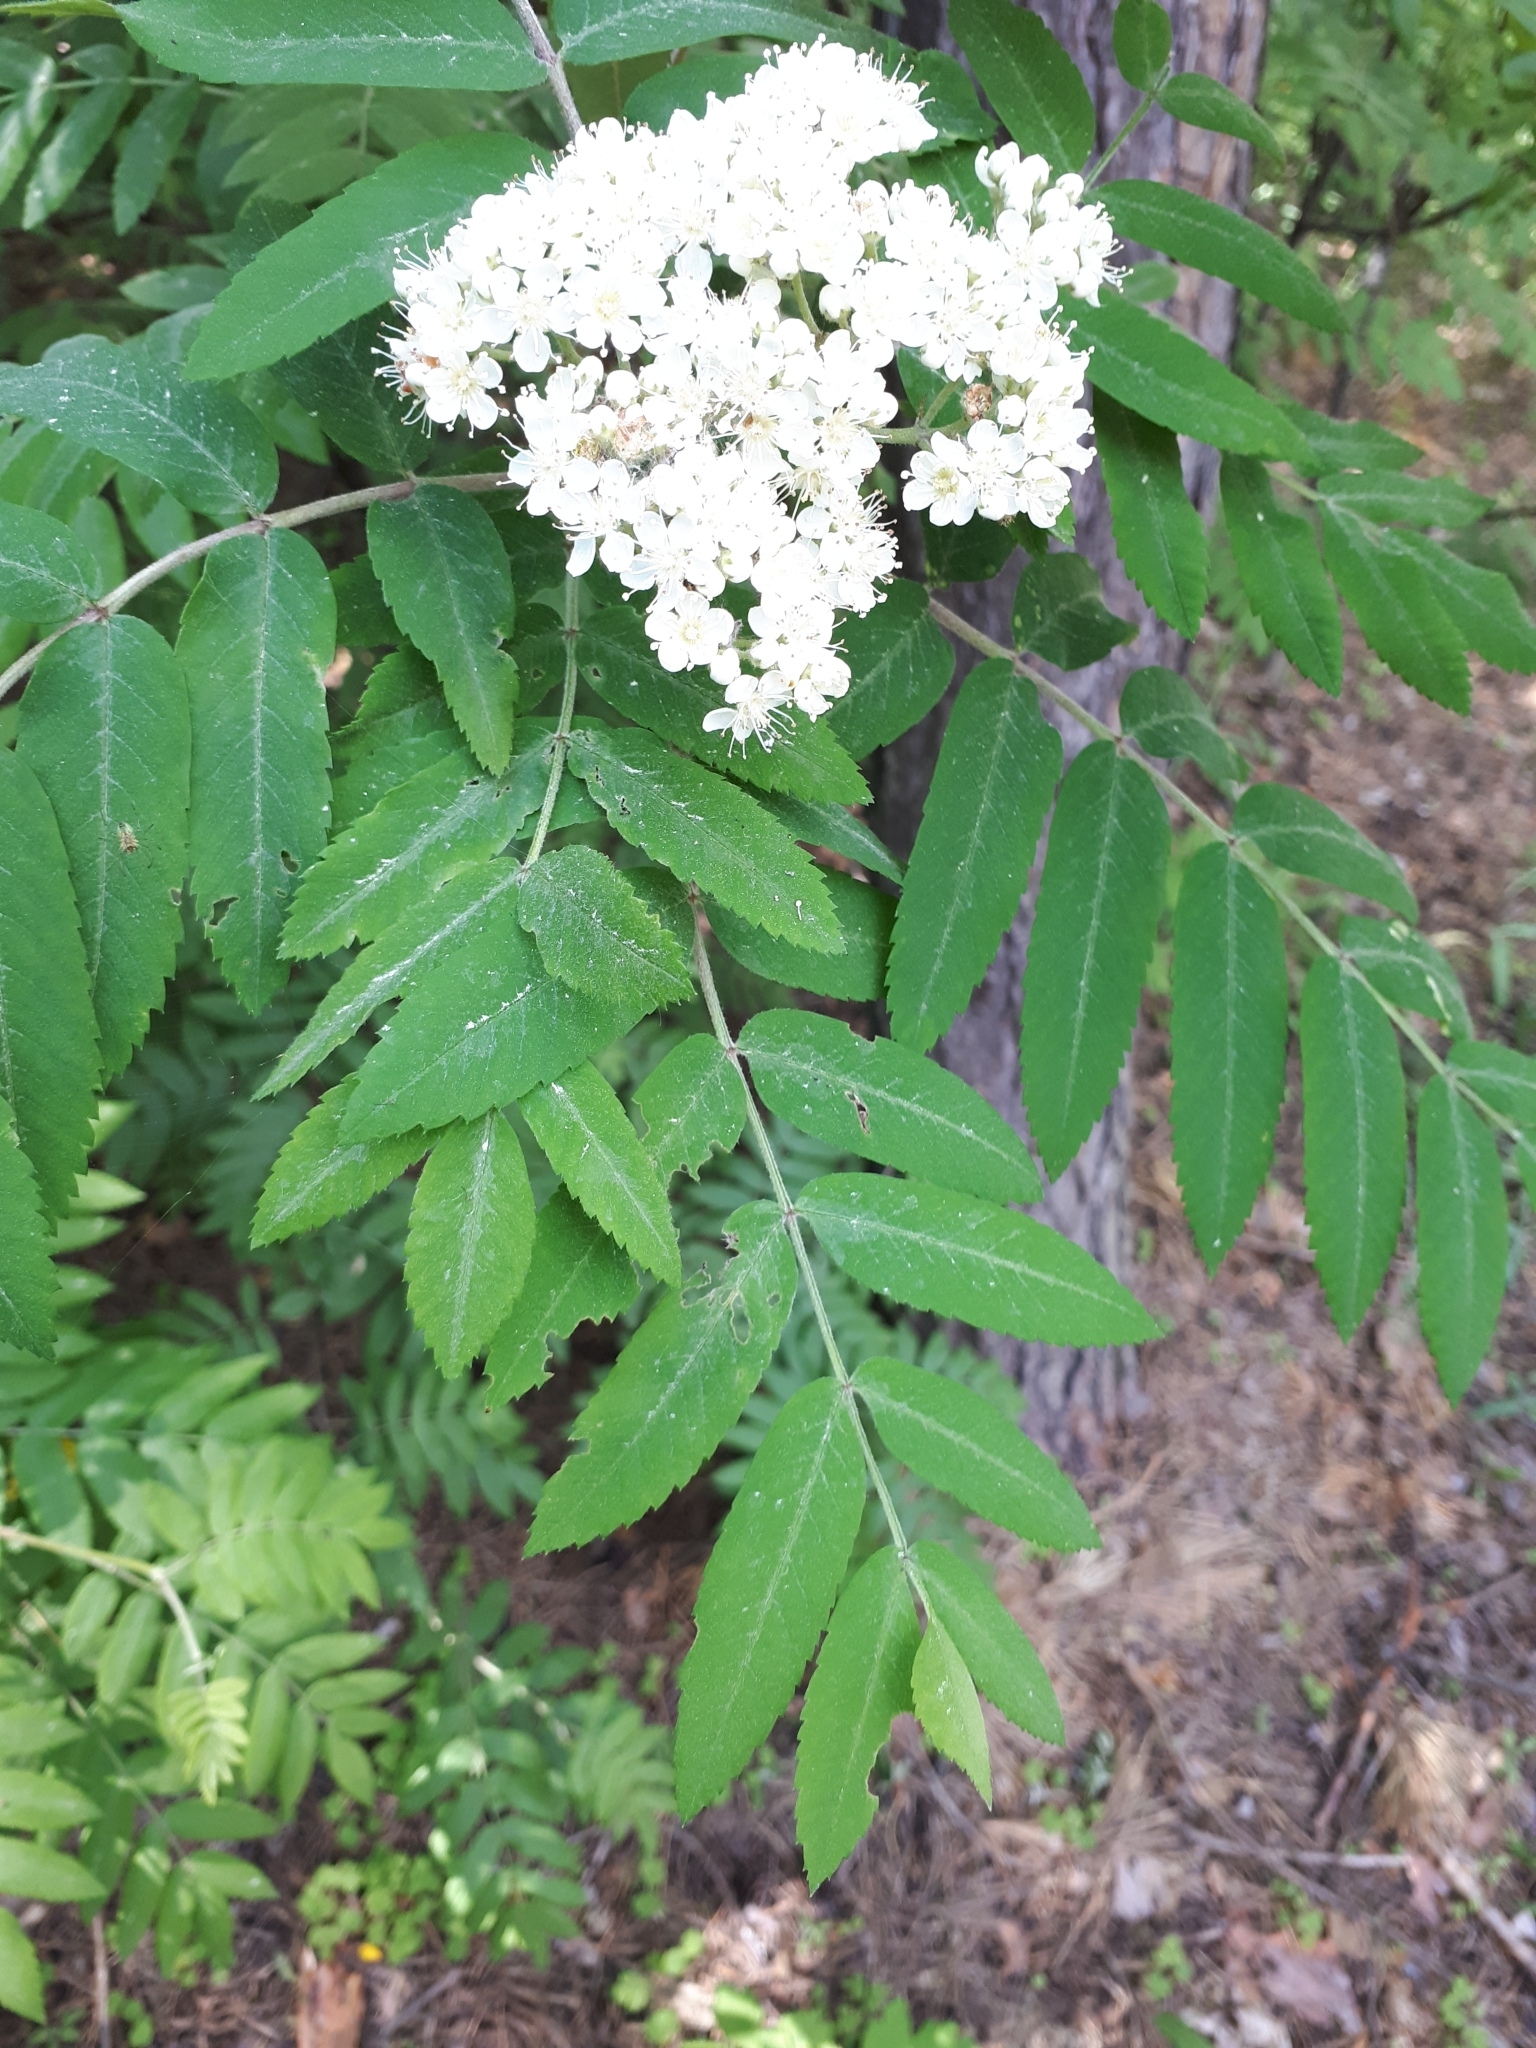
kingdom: Plantae
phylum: Tracheophyta
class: Magnoliopsida
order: Rosales
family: Rosaceae
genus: Sorbus
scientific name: Sorbus aucuparia
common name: Rowan
